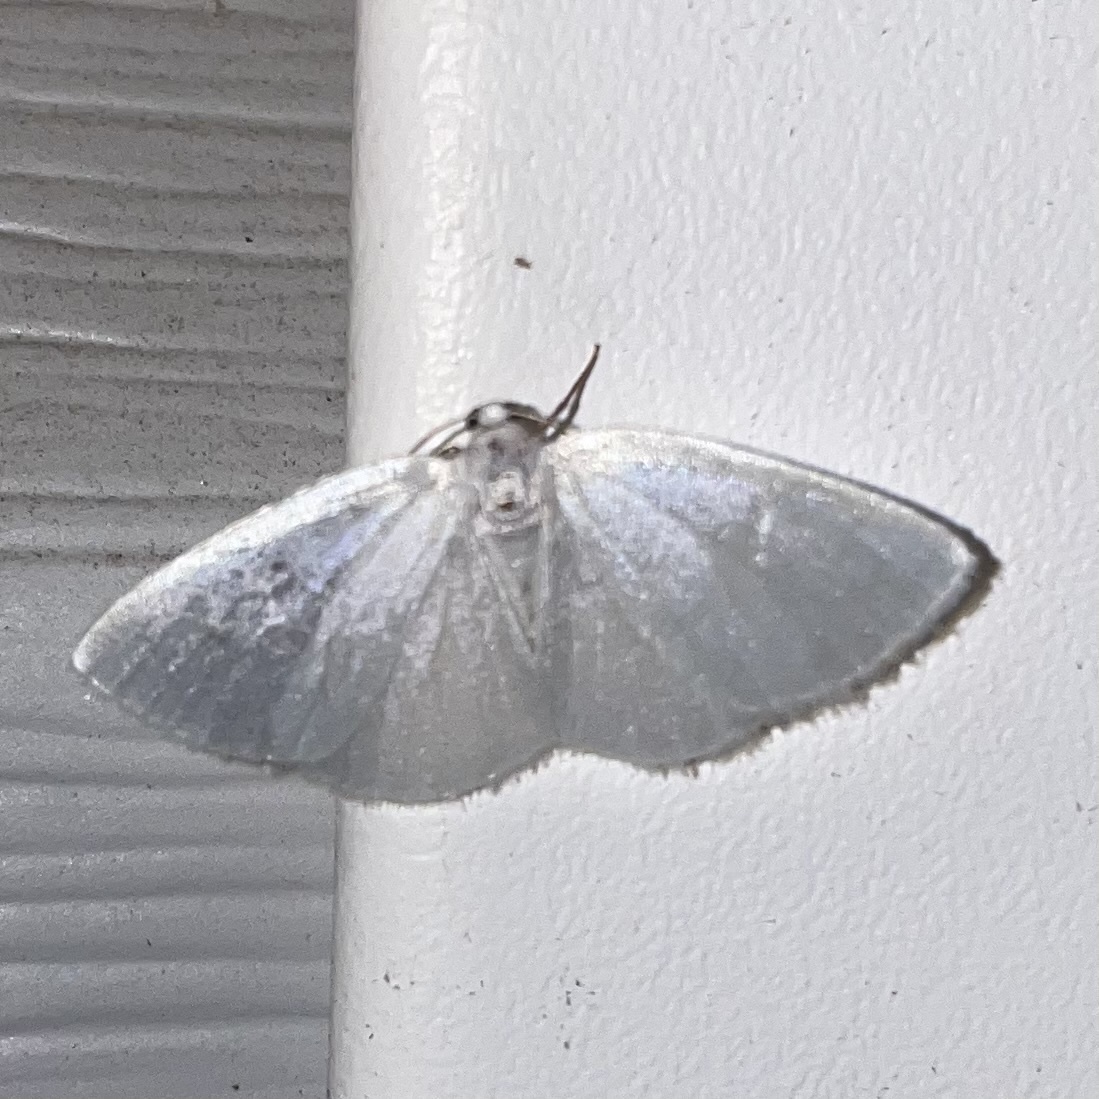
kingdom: Animalia
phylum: Arthropoda
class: Insecta
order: Lepidoptera
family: Geometridae
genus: Lomographa
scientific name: Lomographa vestaliata
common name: White spring moth
